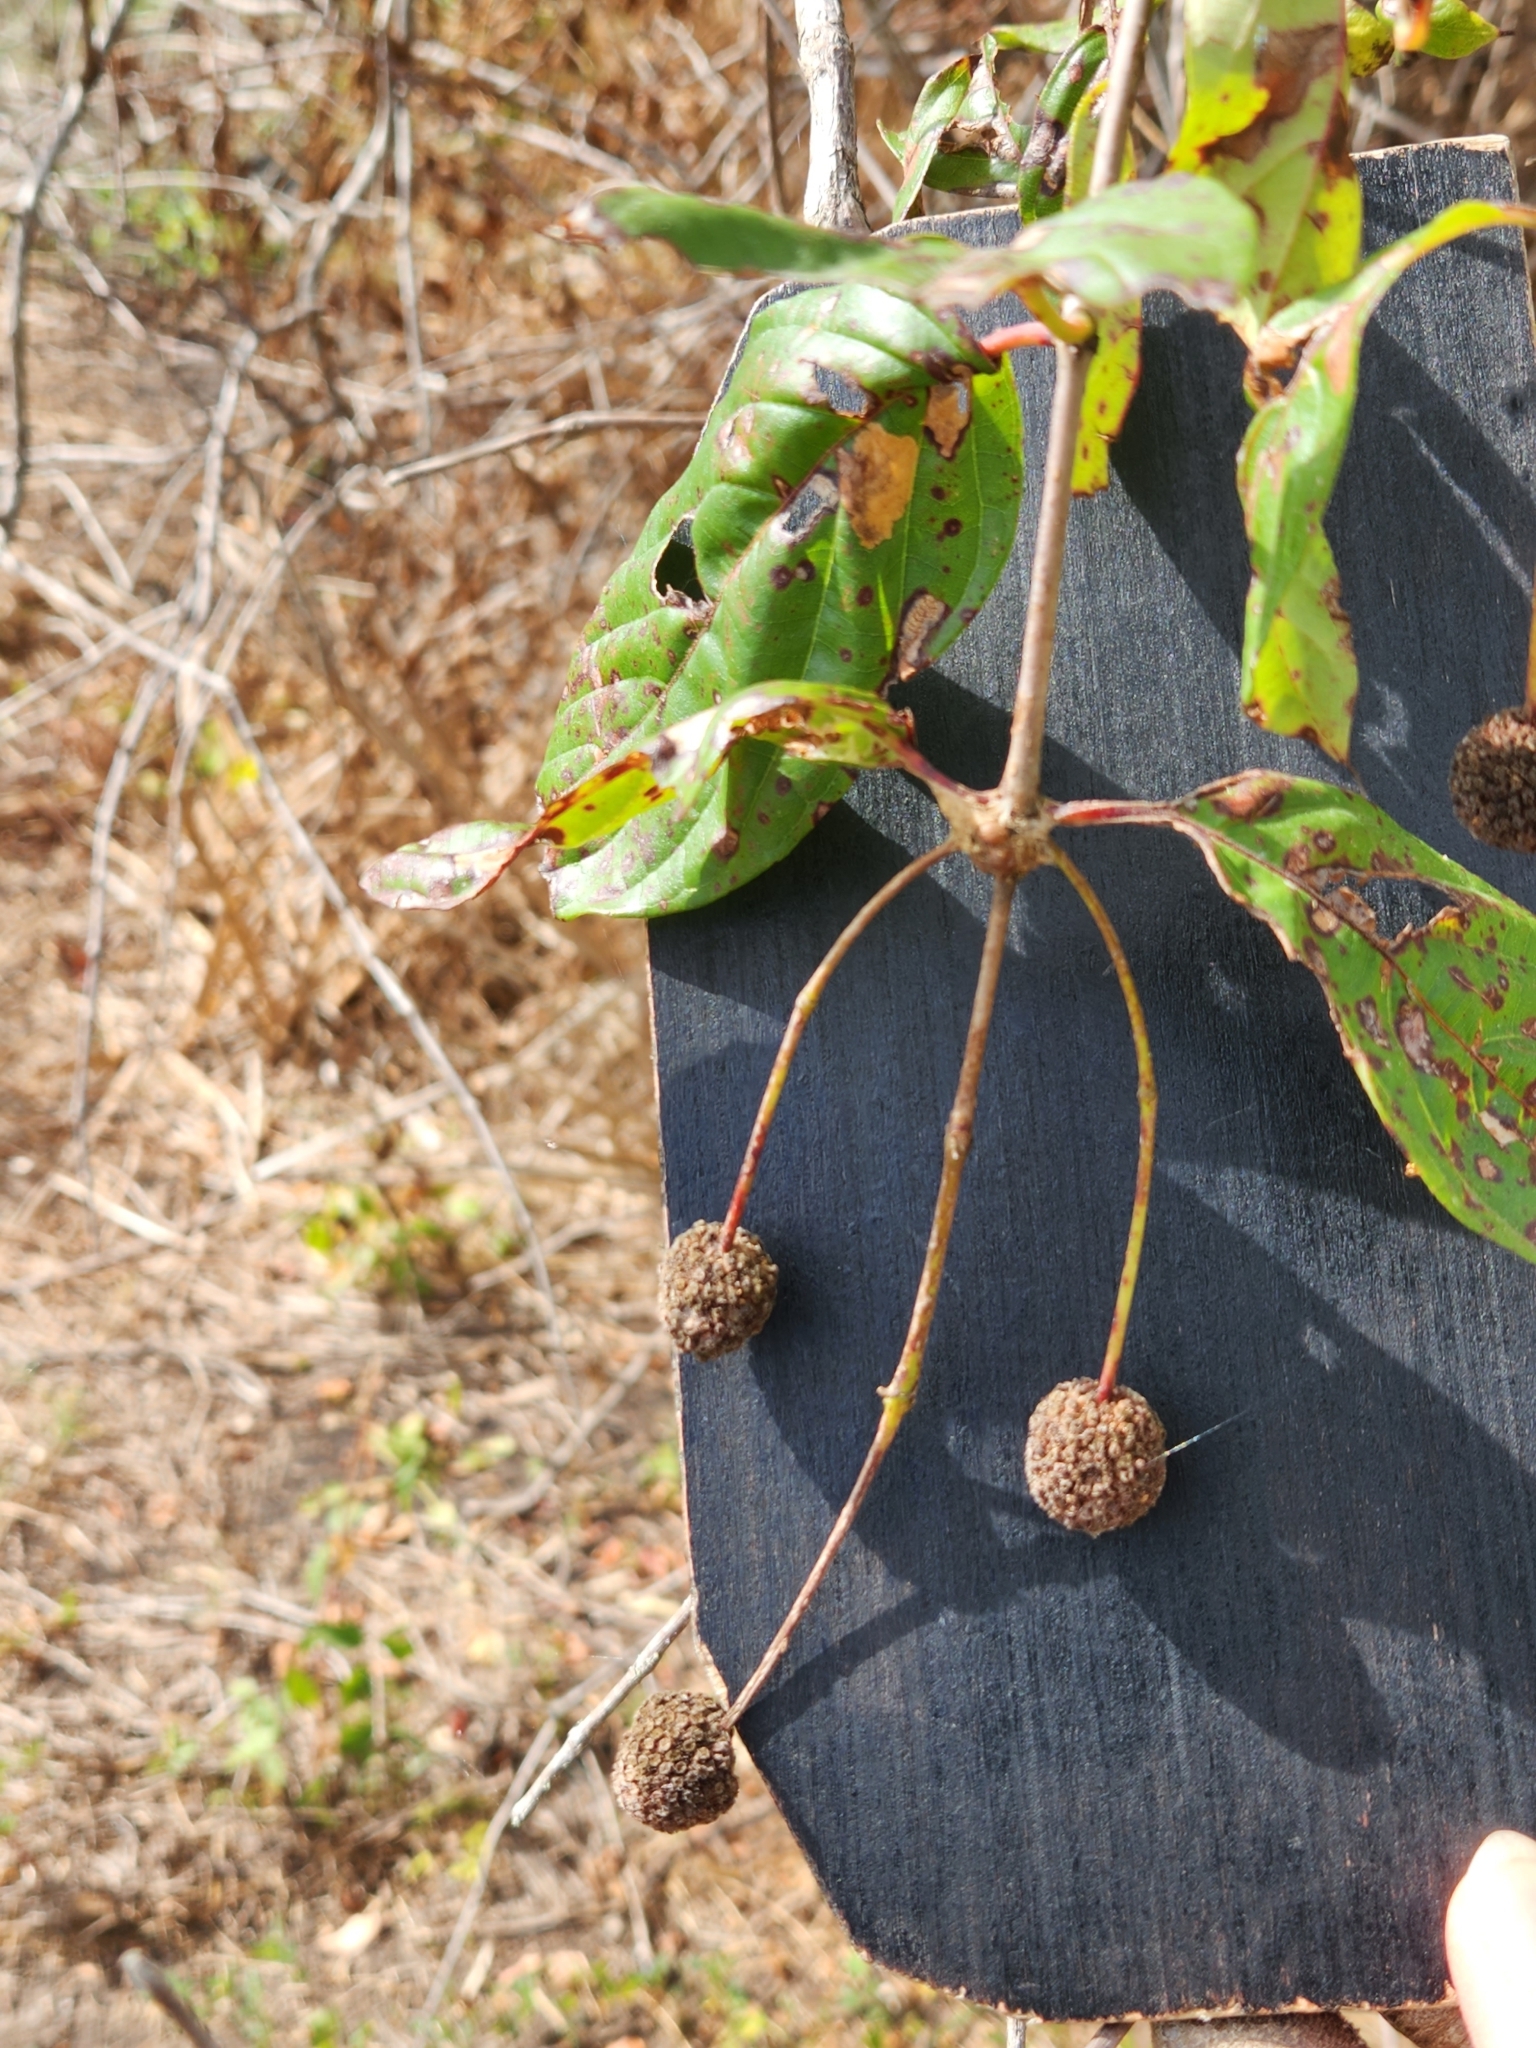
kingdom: Plantae
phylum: Tracheophyta
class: Magnoliopsida
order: Gentianales
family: Rubiaceae
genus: Cephalanthus
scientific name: Cephalanthus occidentalis
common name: Button-willow
